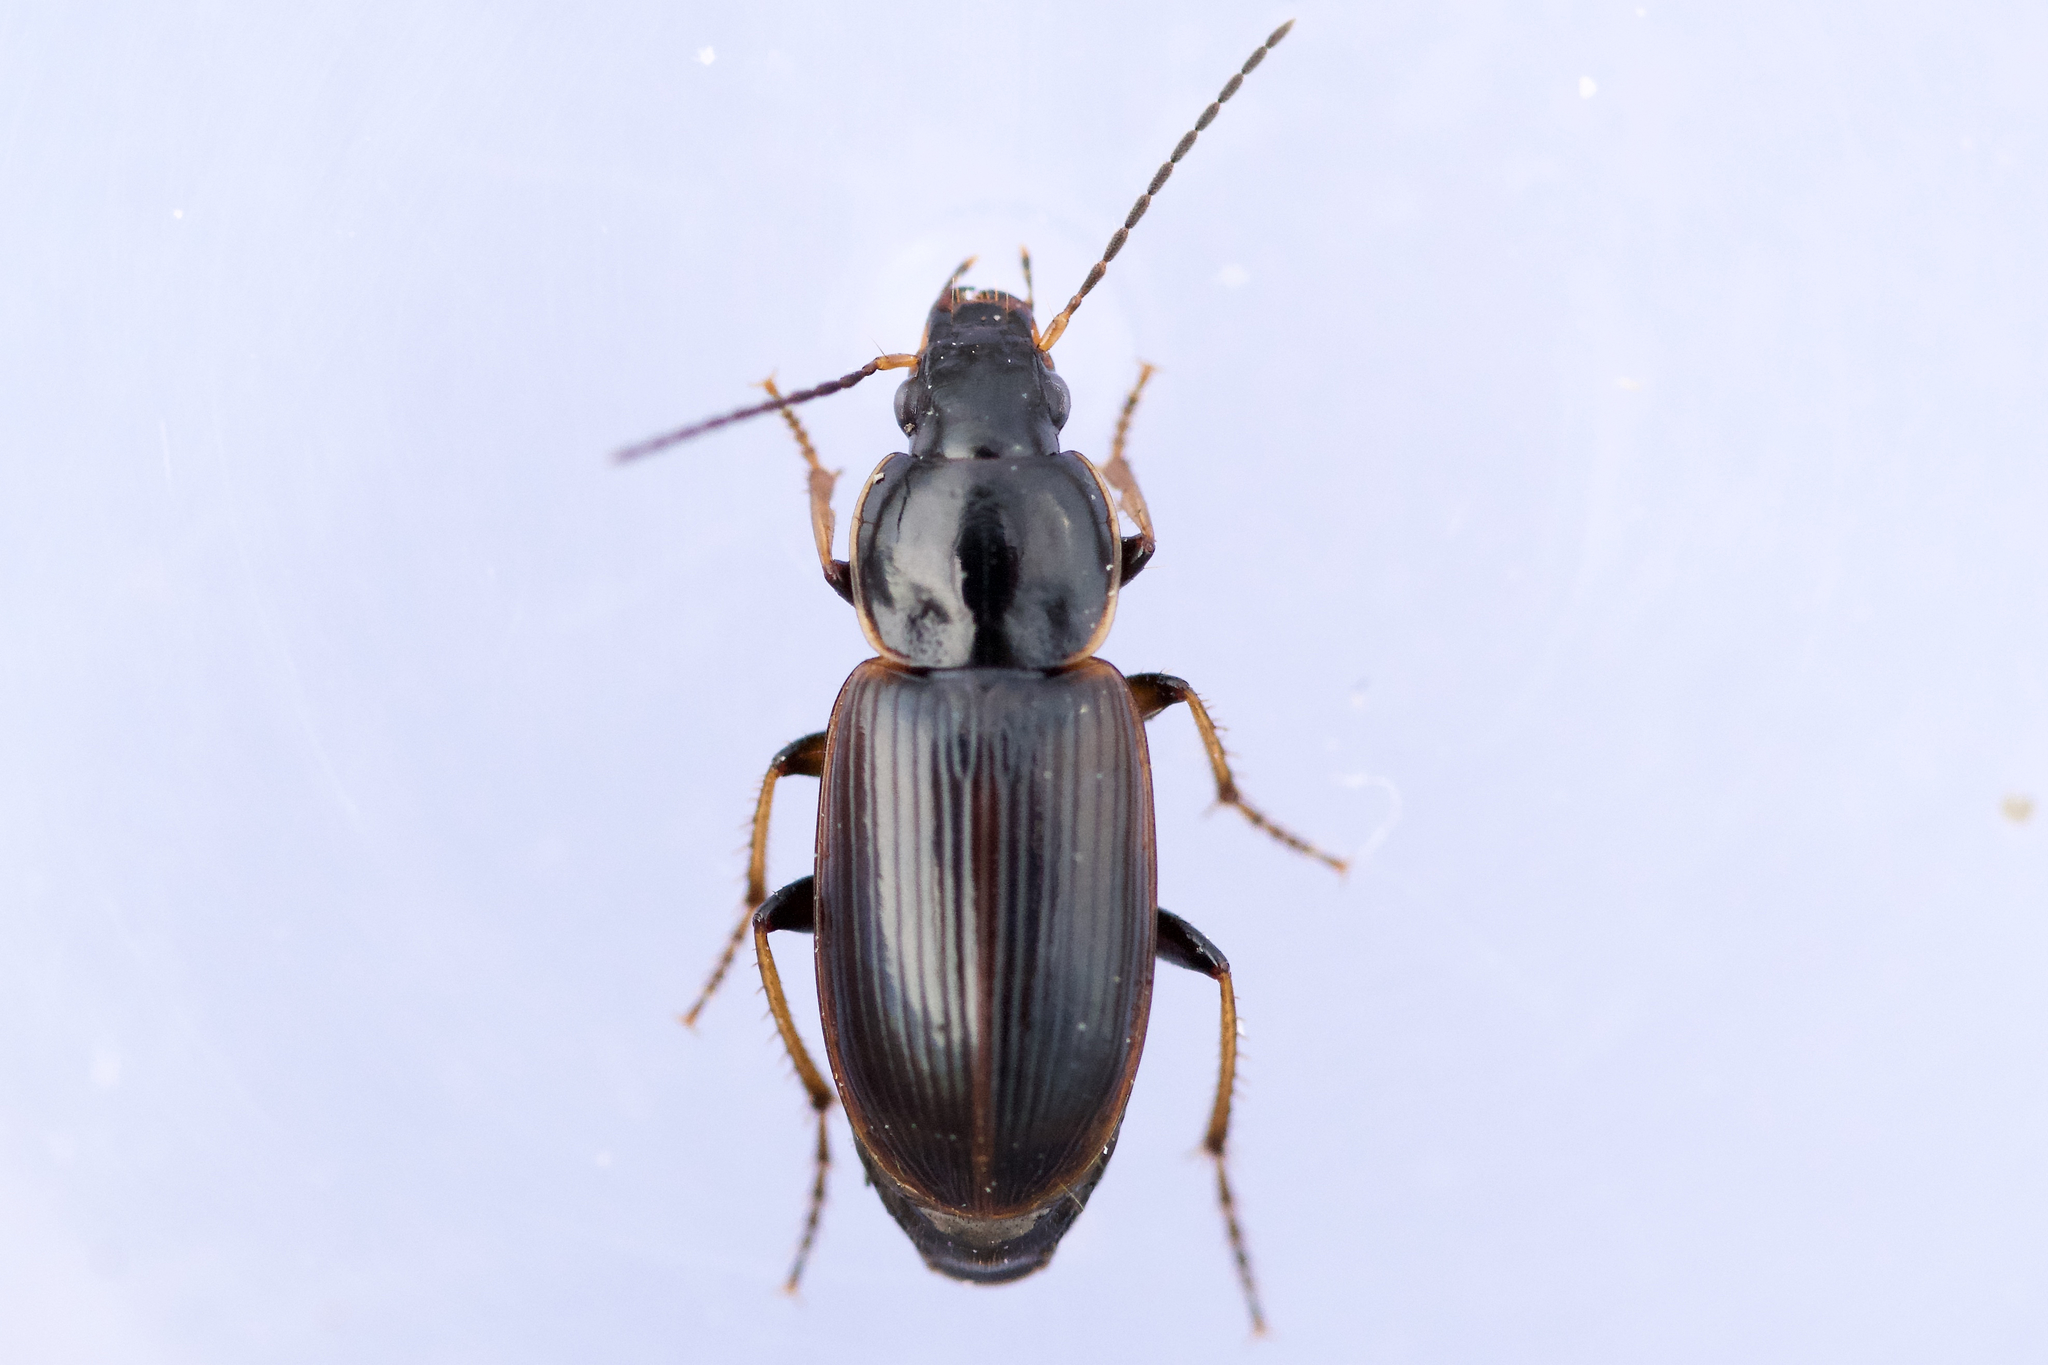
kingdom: Animalia
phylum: Arthropoda
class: Insecta
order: Coleoptera
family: Carabidae
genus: Stenolophus
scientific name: Stenolophus fuliginosus
